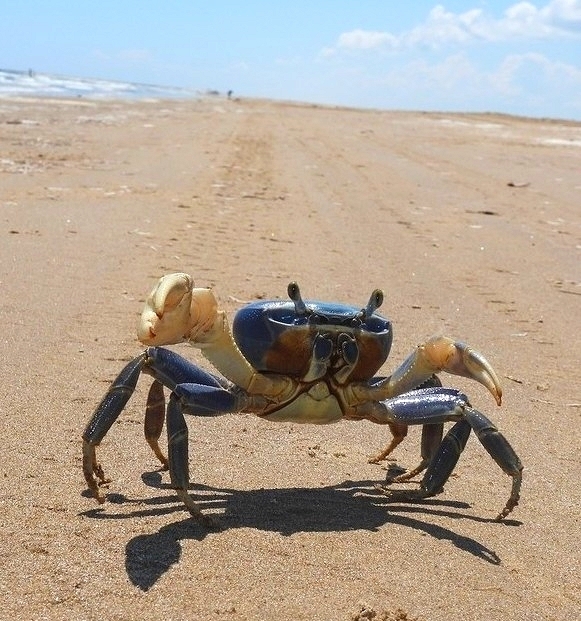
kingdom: Animalia
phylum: Arthropoda
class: Malacostraca
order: Decapoda
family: Gecarcinidae
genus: Cardisoma
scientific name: Cardisoma guanhumi
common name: Great land crab
